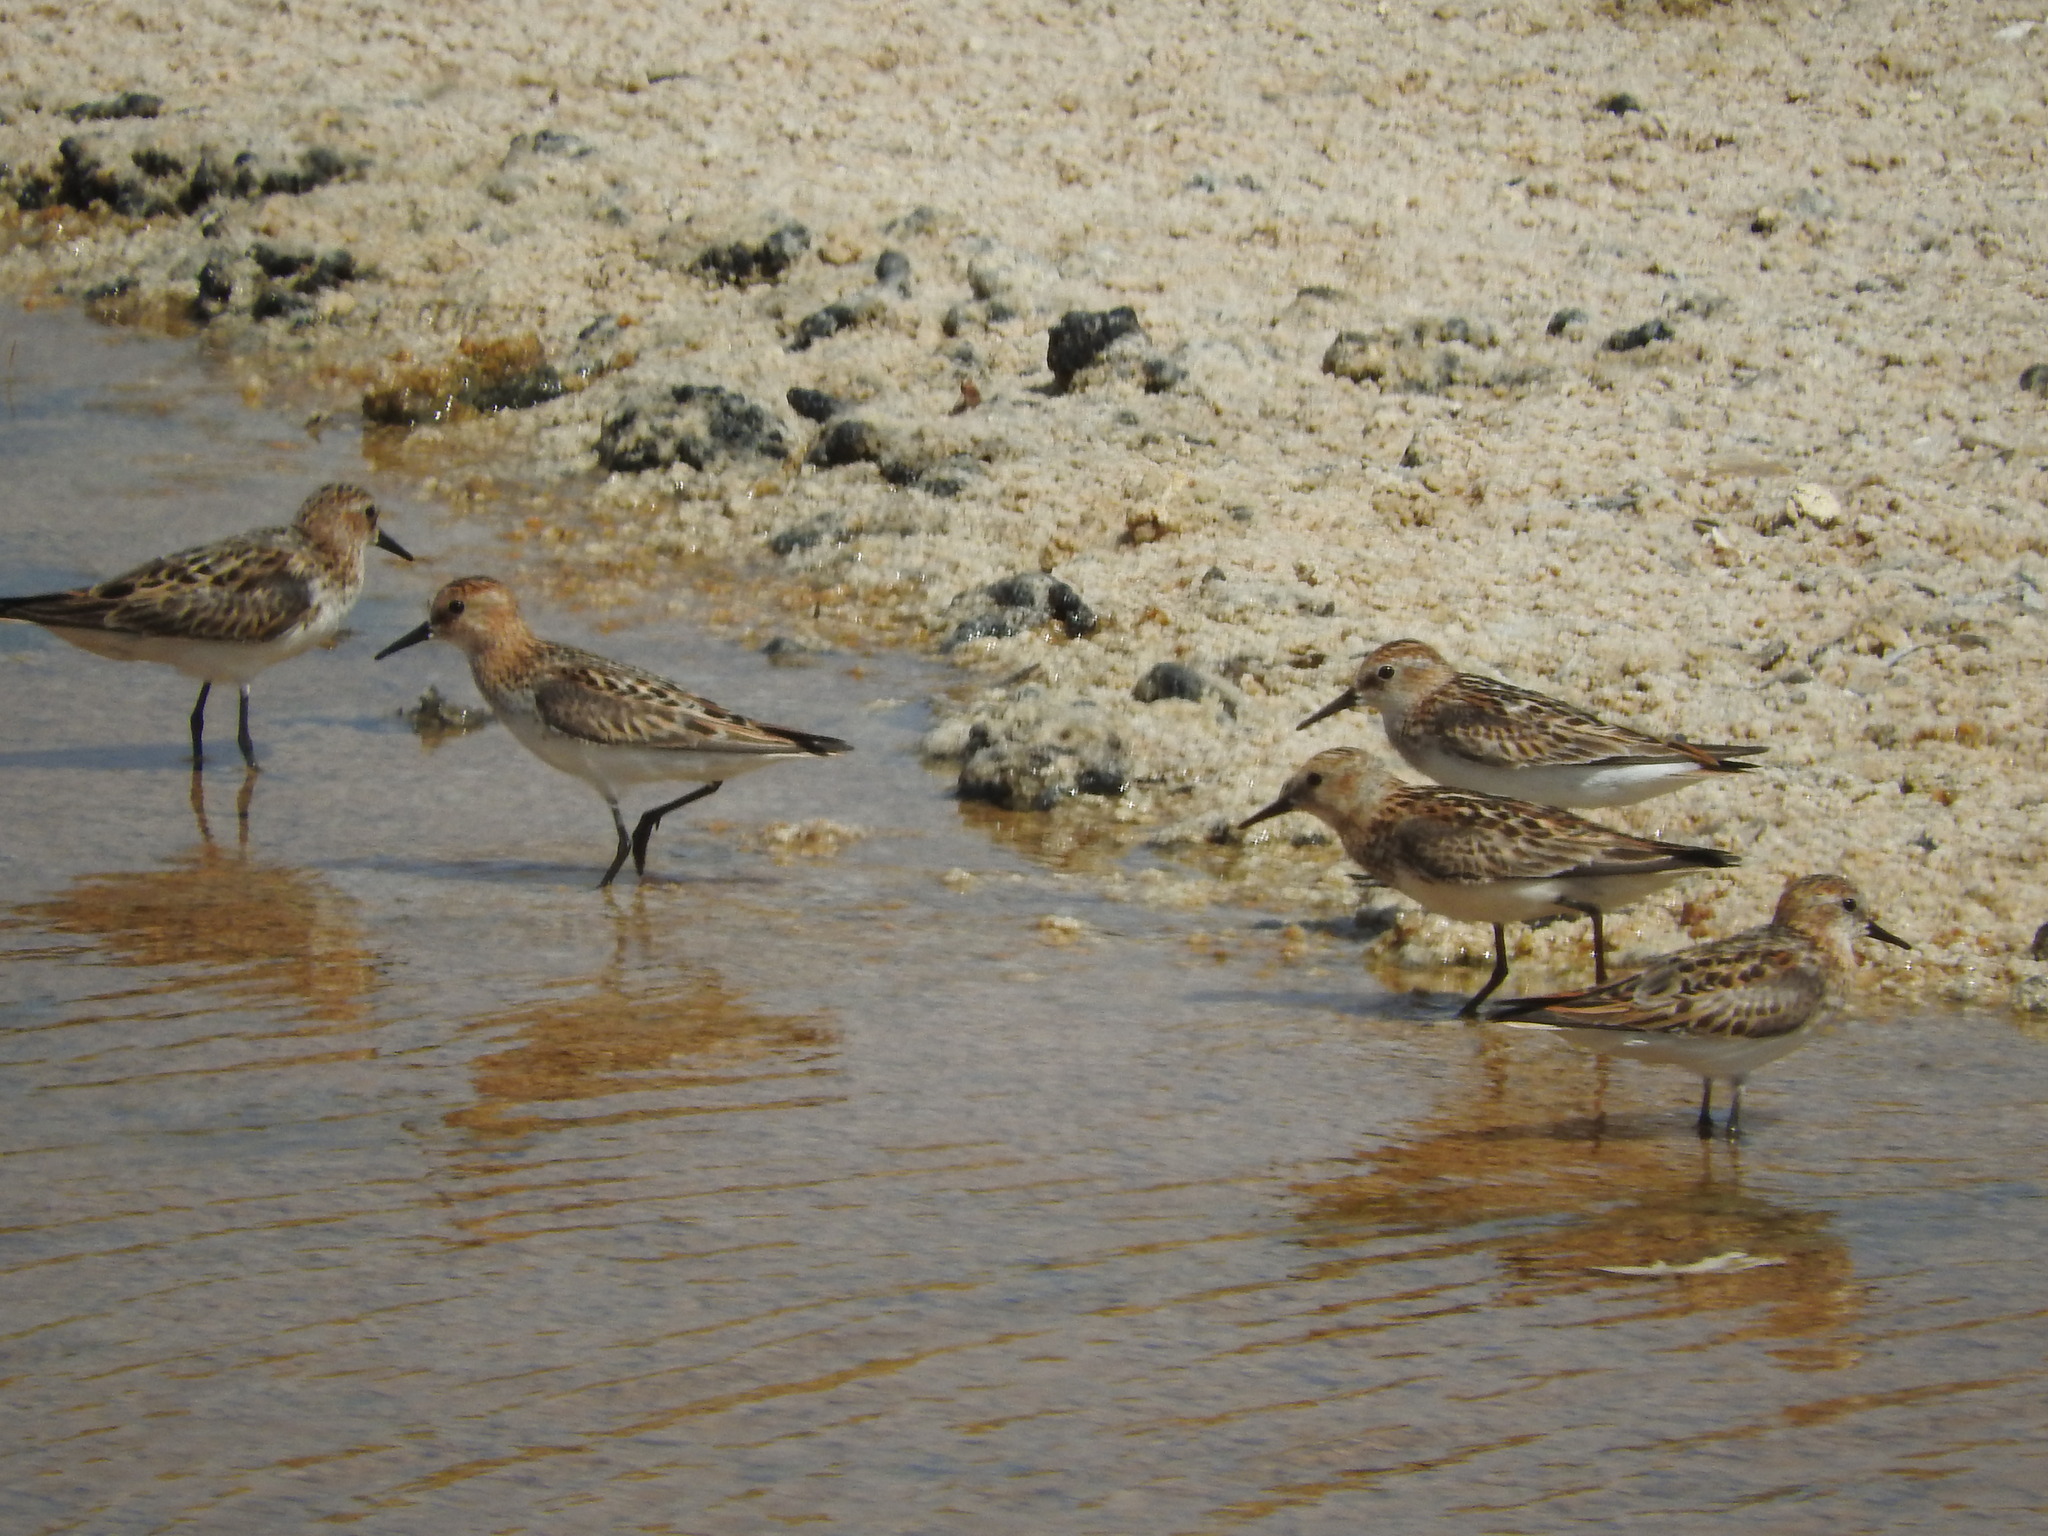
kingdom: Animalia
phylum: Chordata
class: Aves
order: Charadriiformes
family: Scolopacidae
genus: Calidris
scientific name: Calidris minuta
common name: Little stint
